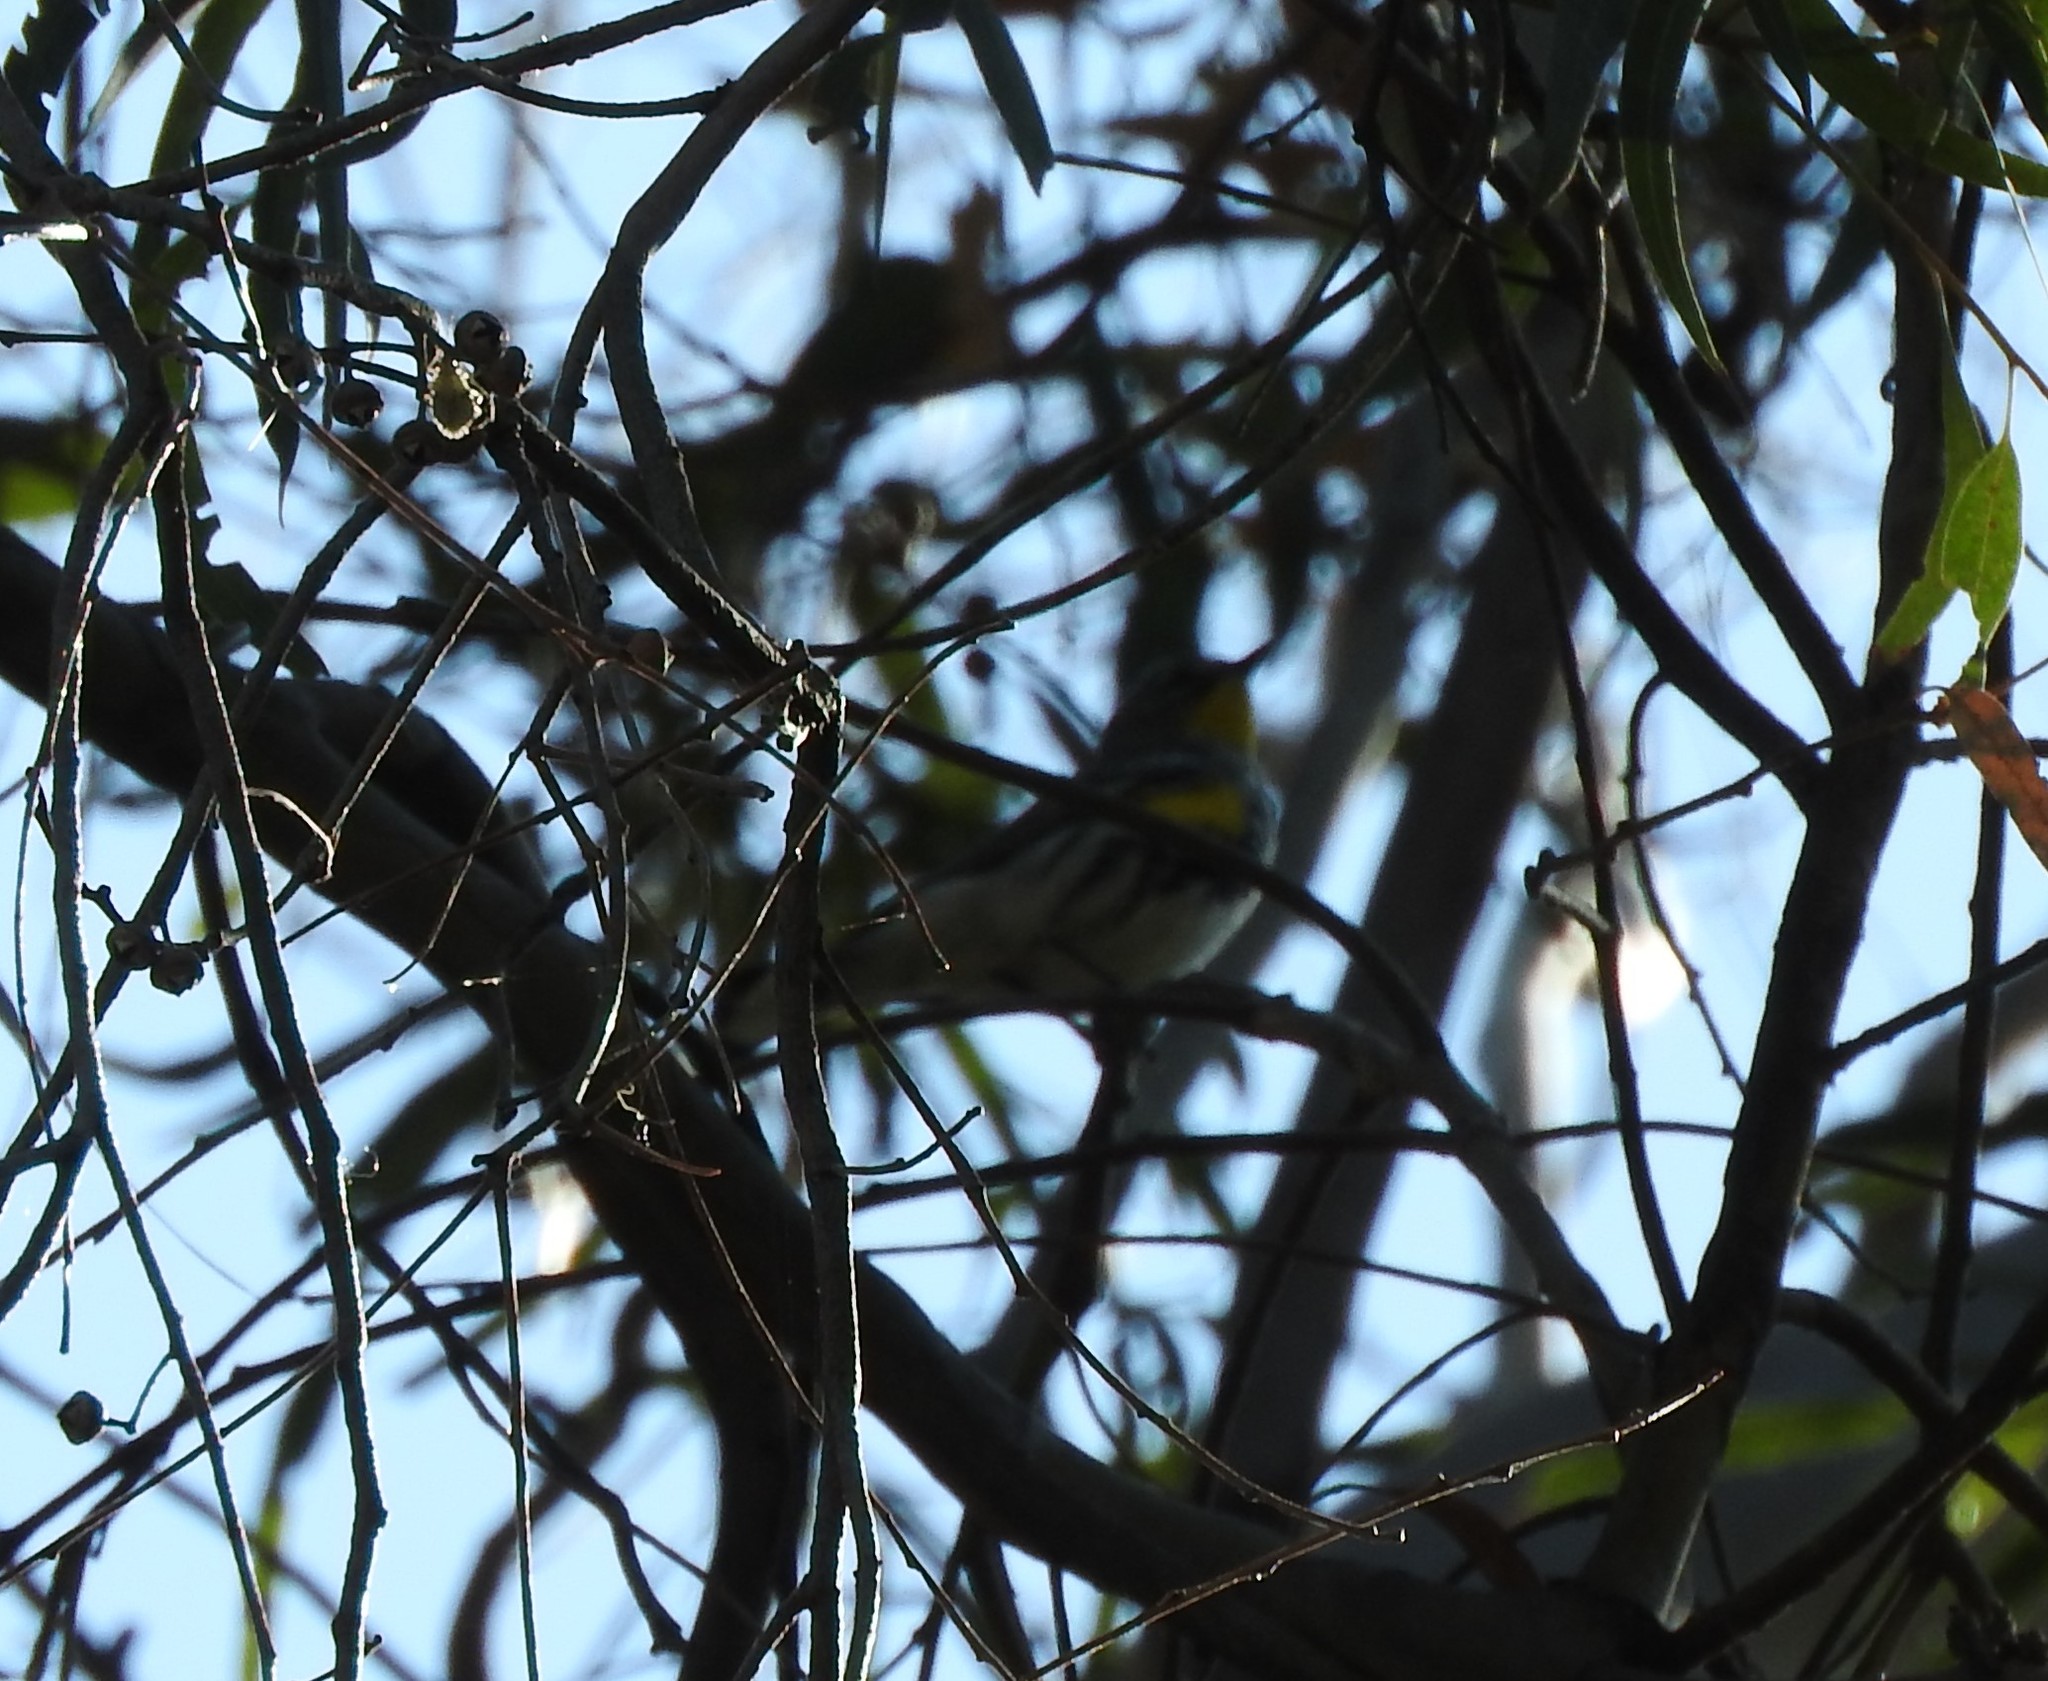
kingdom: Animalia
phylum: Chordata
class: Aves
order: Passeriformes
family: Parulidae
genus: Setophaga
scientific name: Setophaga coronata
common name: Myrtle warbler
